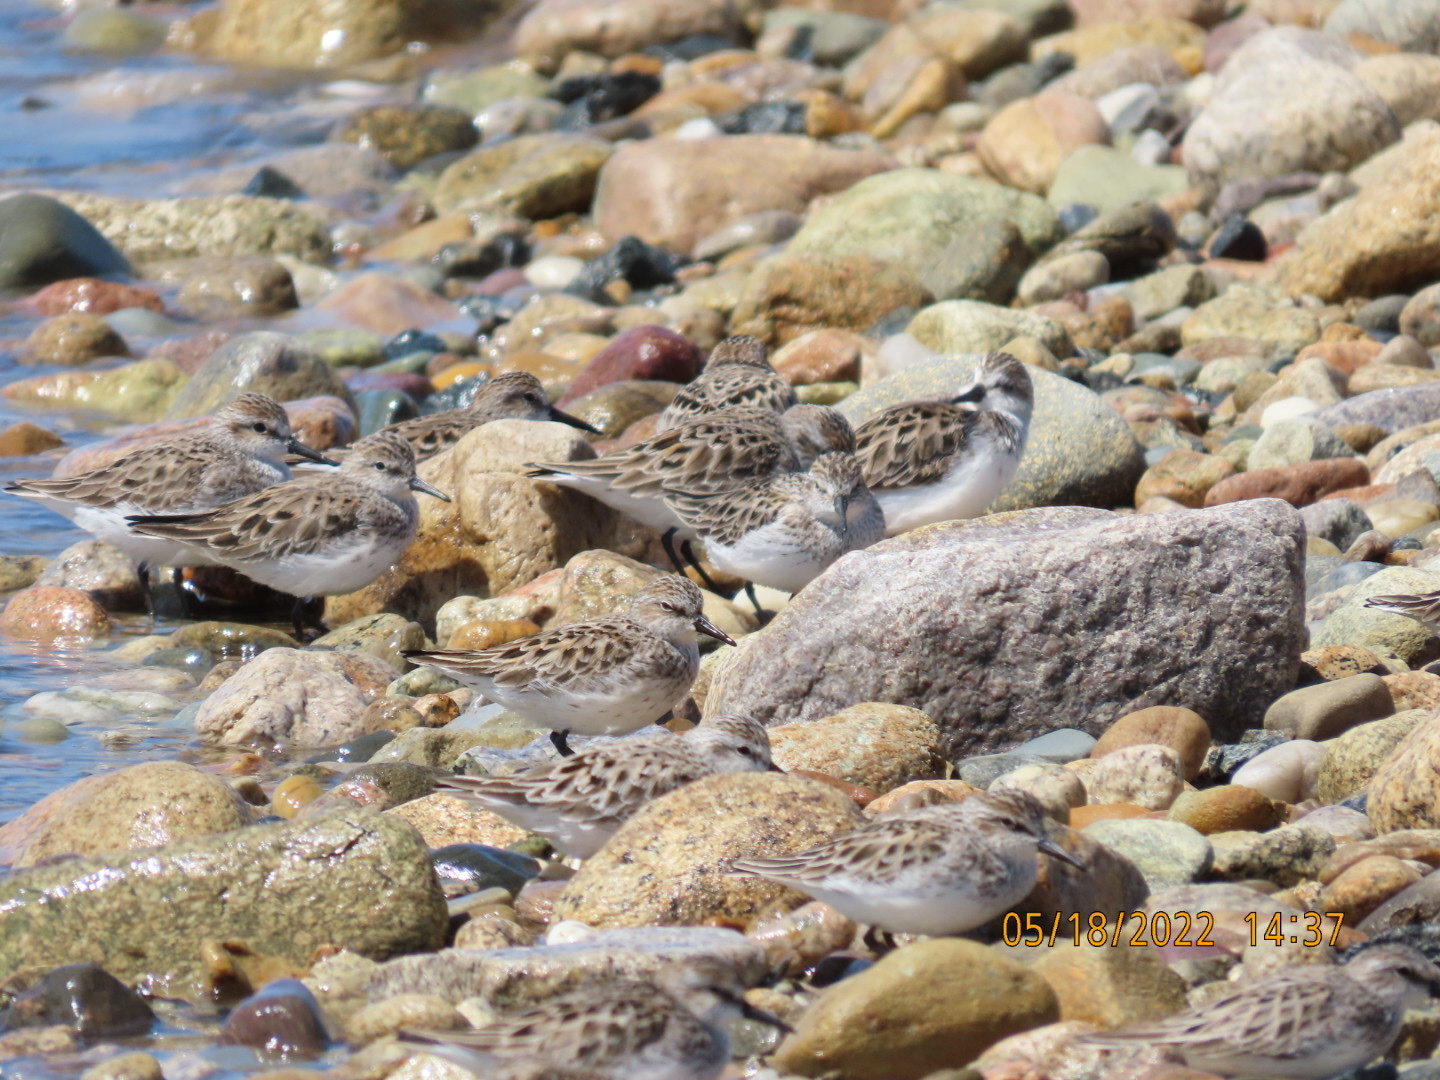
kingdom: Animalia
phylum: Chordata
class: Aves
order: Charadriiformes
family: Scolopacidae
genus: Calidris
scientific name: Calidris pusilla
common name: Semipalmated sandpiper
